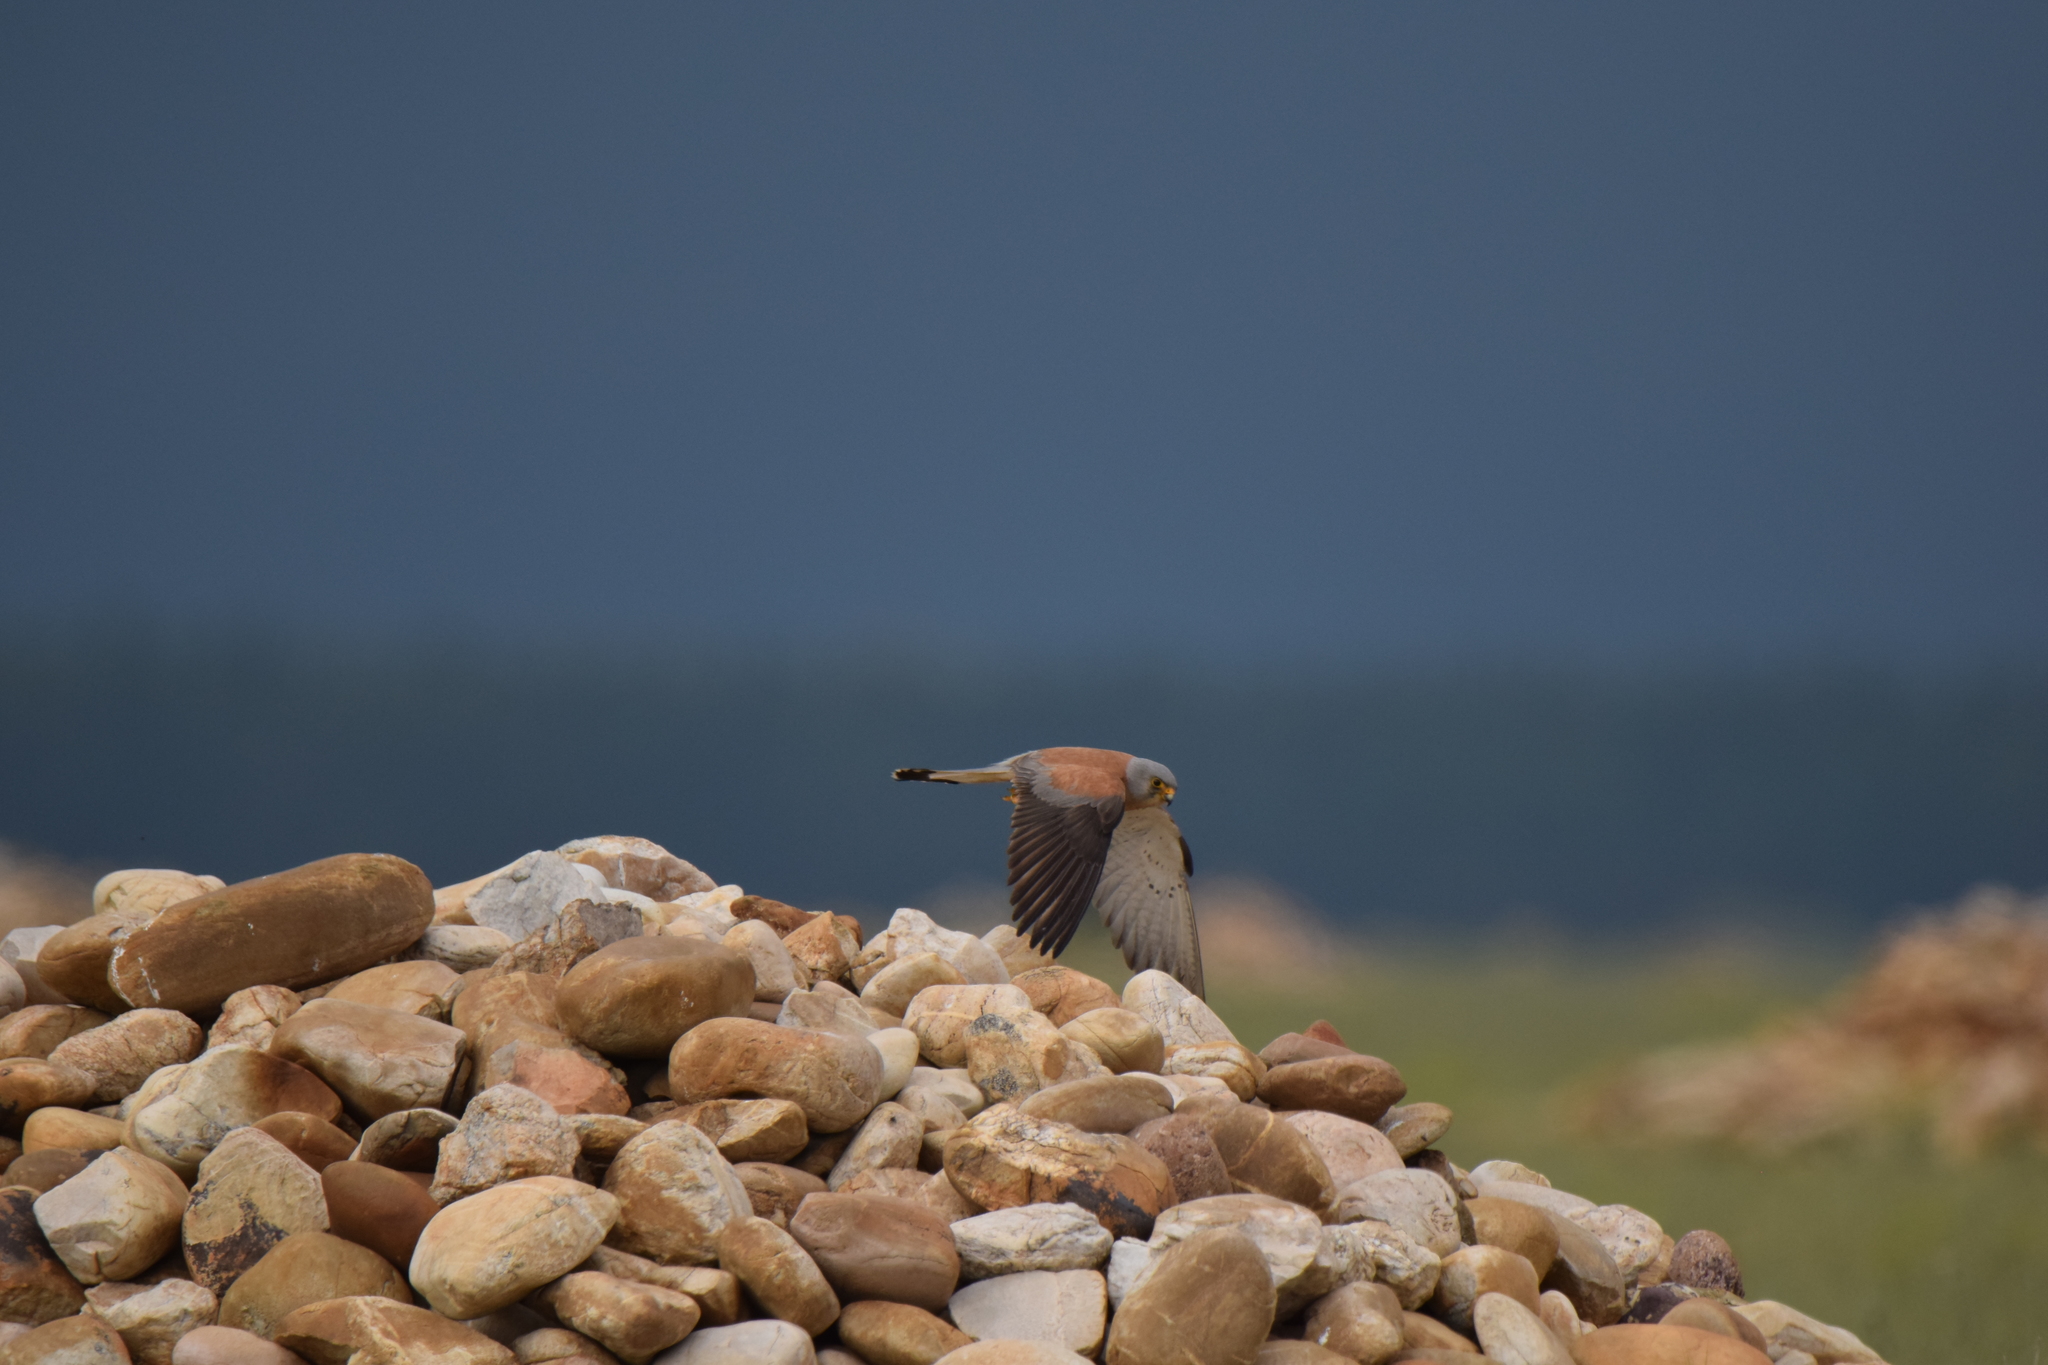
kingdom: Animalia
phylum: Chordata
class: Aves
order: Falconiformes
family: Falconidae
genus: Falco
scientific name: Falco naumanni
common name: Lesser kestrel
